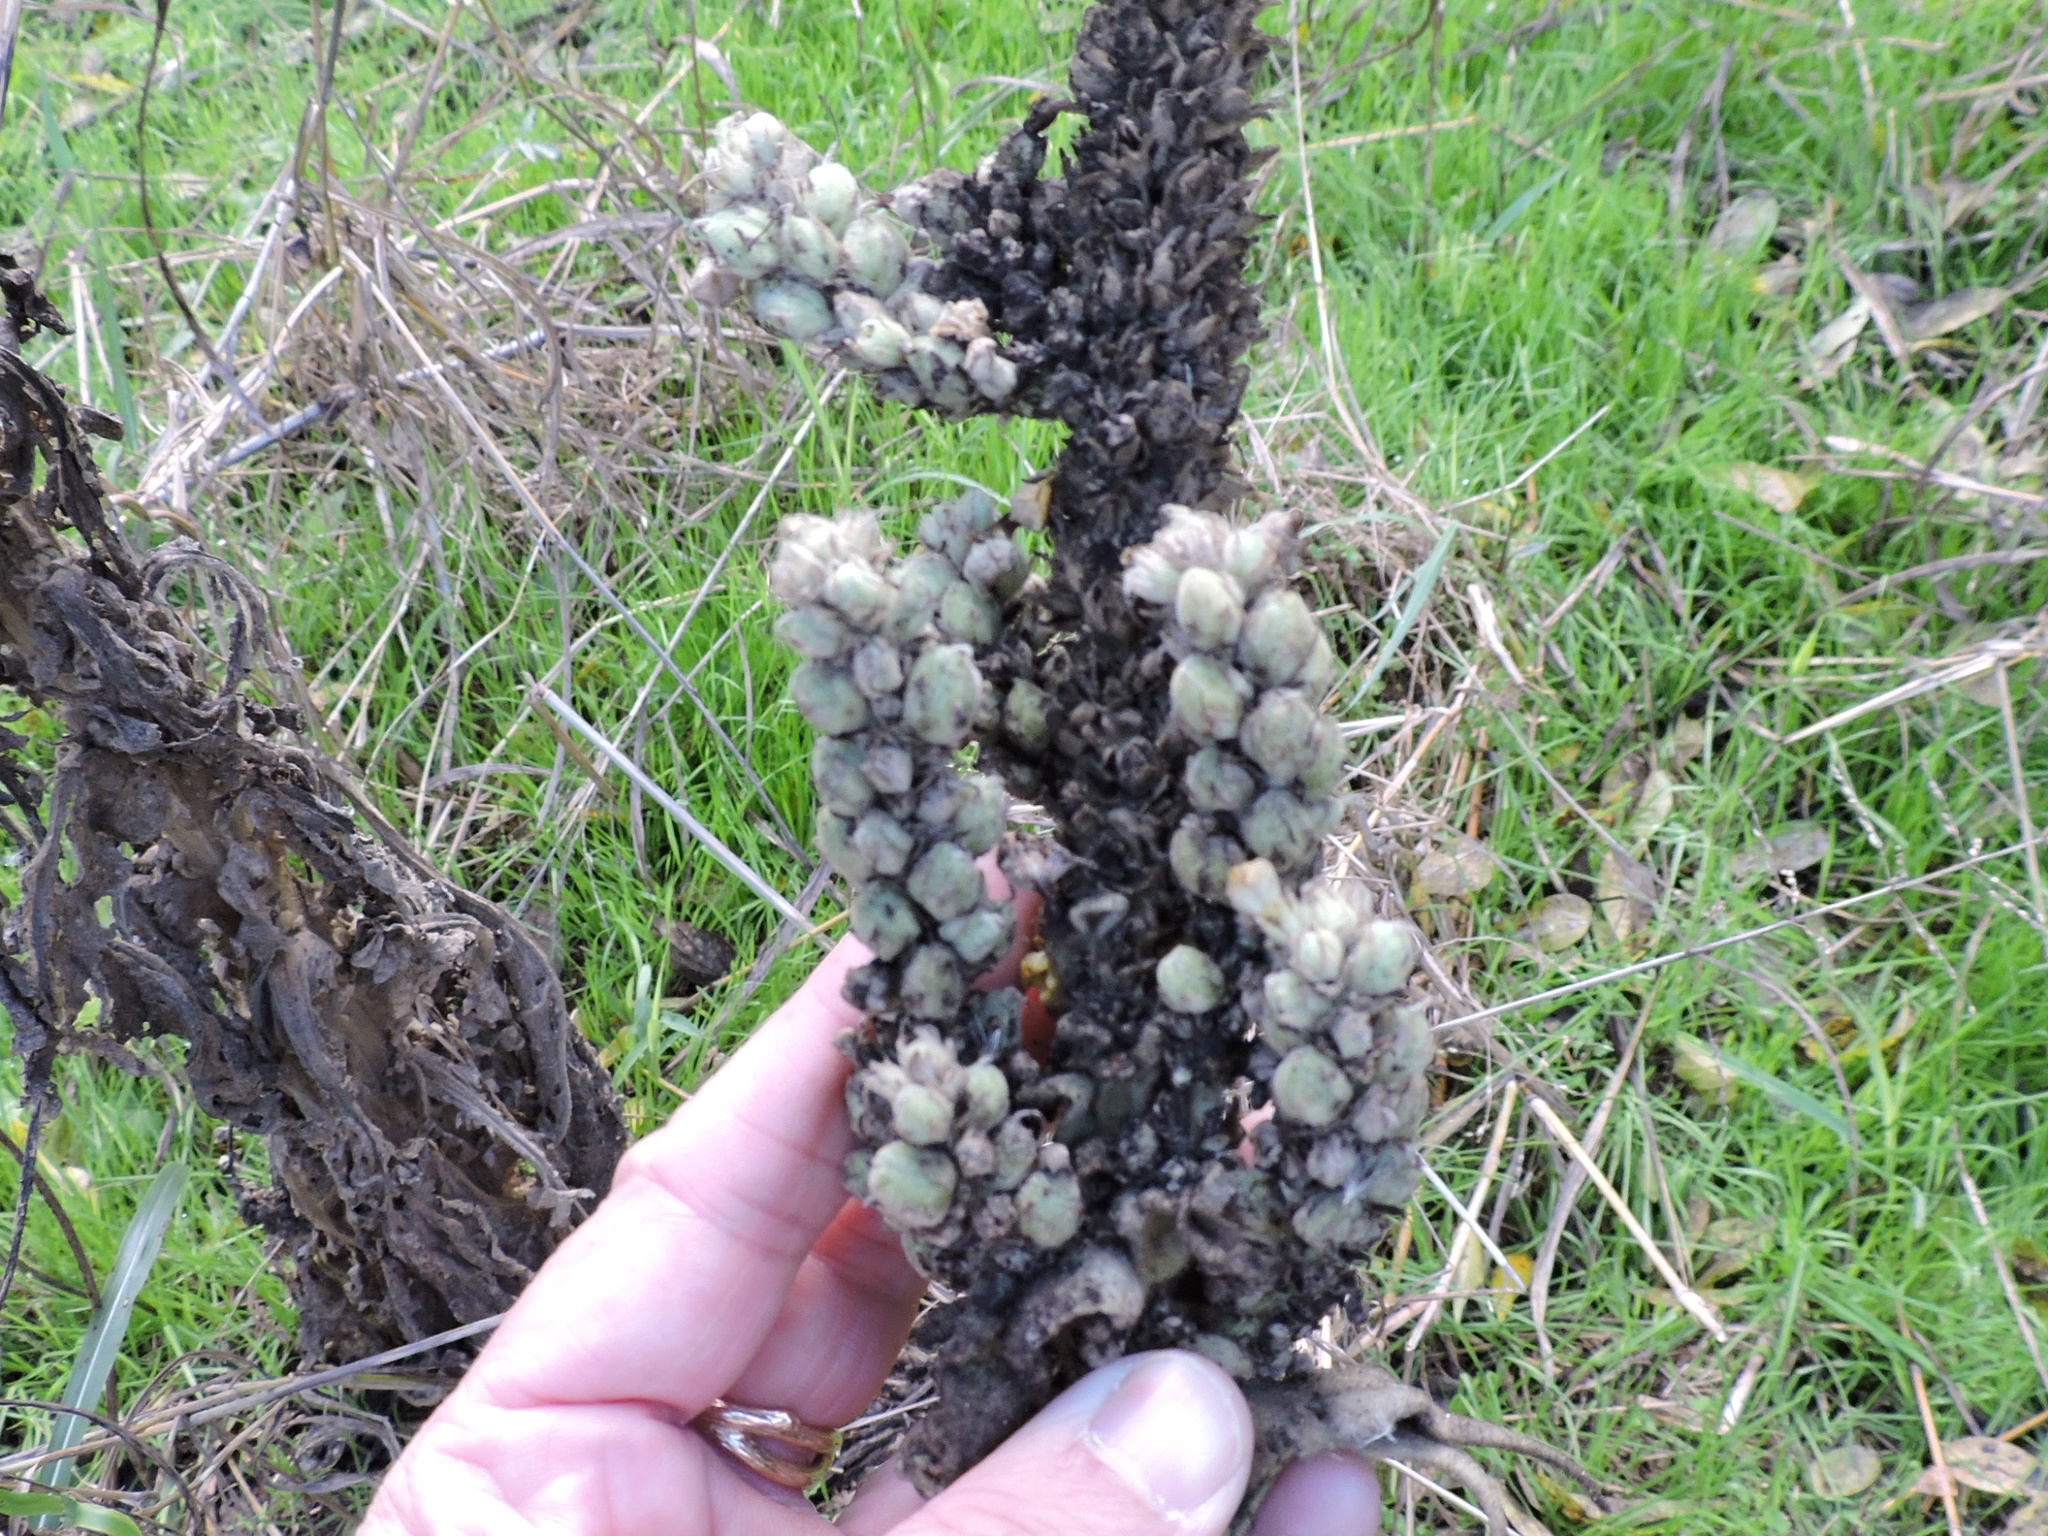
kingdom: Plantae
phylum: Tracheophyta
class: Magnoliopsida
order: Lamiales
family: Scrophulariaceae
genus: Verbascum
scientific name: Verbascum thapsus
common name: Common mullein
